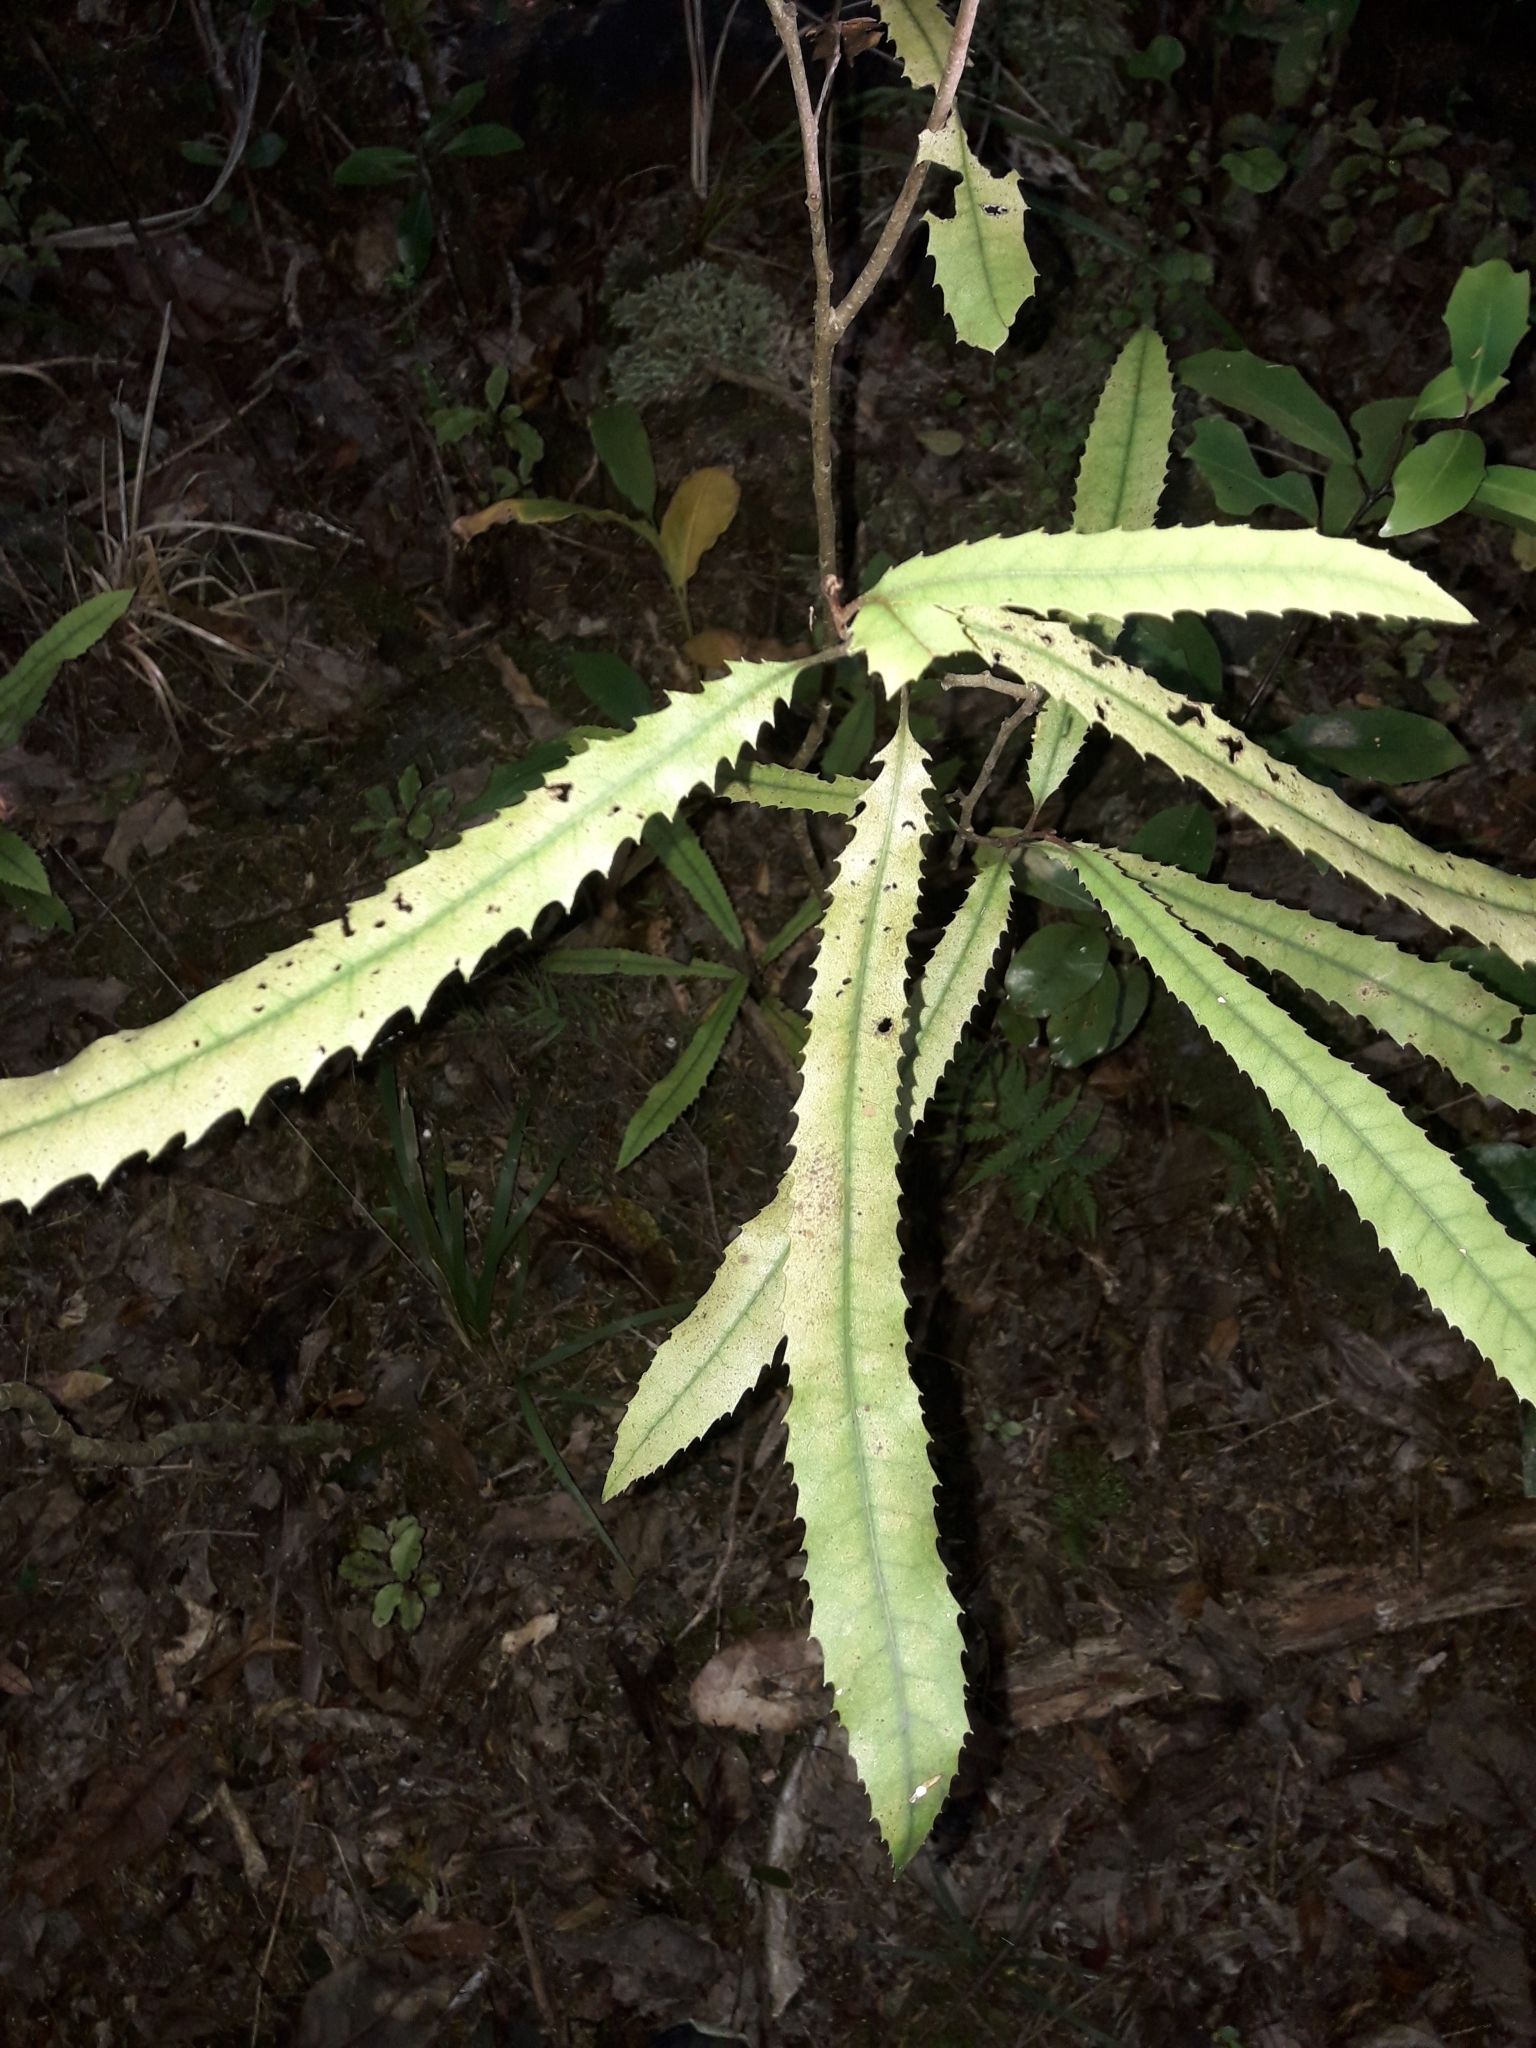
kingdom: Plantae
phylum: Tracheophyta
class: Magnoliopsida
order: Proteales
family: Proteaceae
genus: Knightia
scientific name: Knightia excelsa
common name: New zealand-honeysuckle
